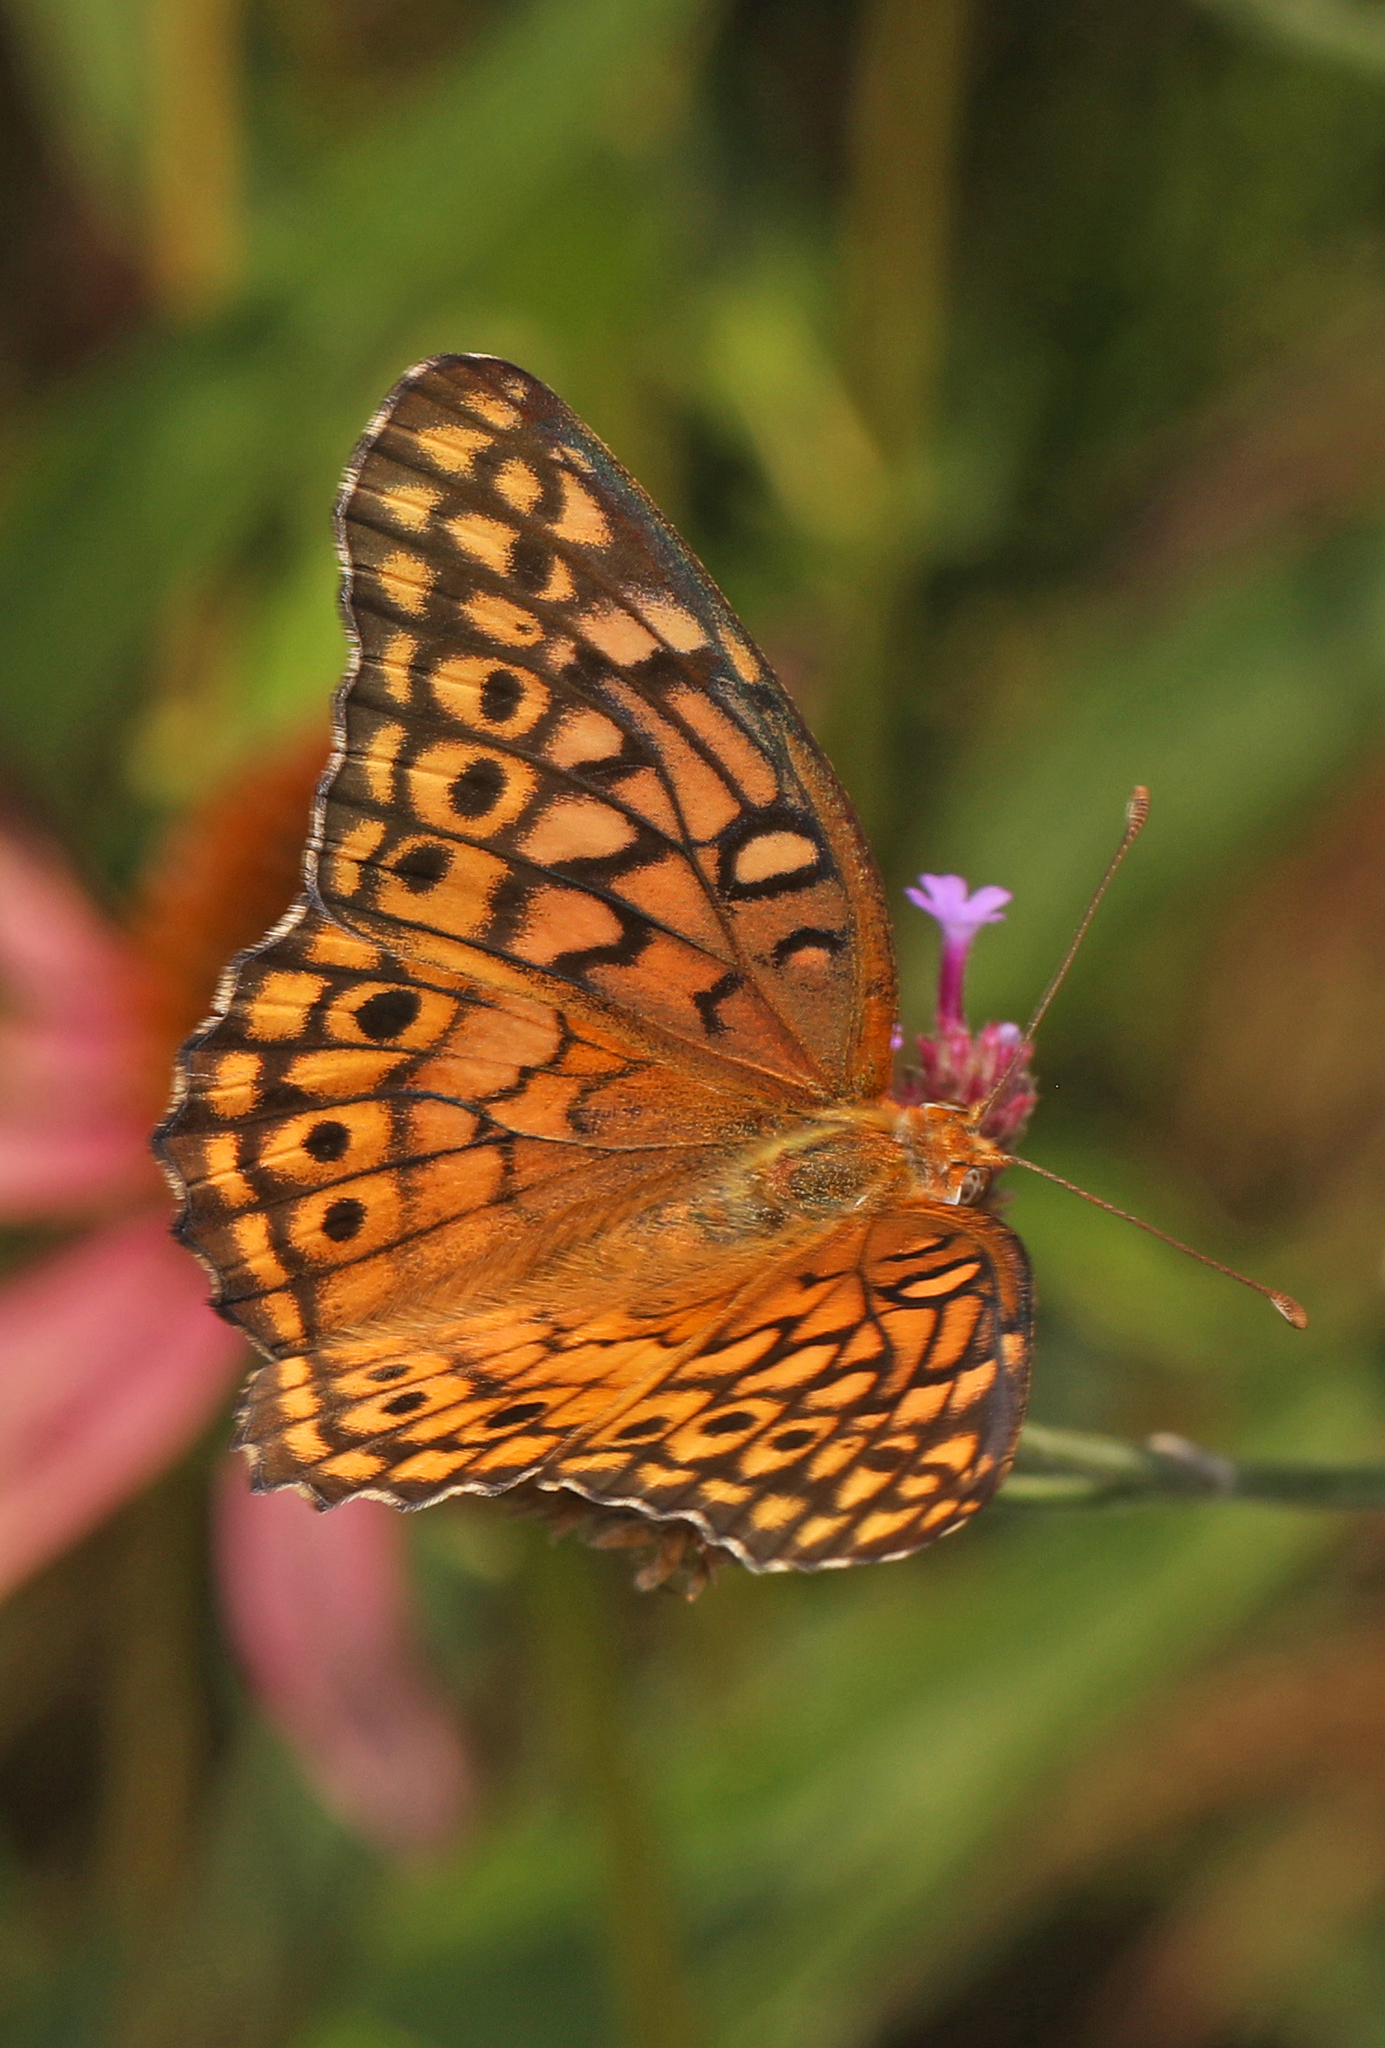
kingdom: Animalia
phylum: Arthropoda
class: Insecta
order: Lepidoptera
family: Nymphalidae
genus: Euptoieta
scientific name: Euptoieta claudia
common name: Variegated fritillary
